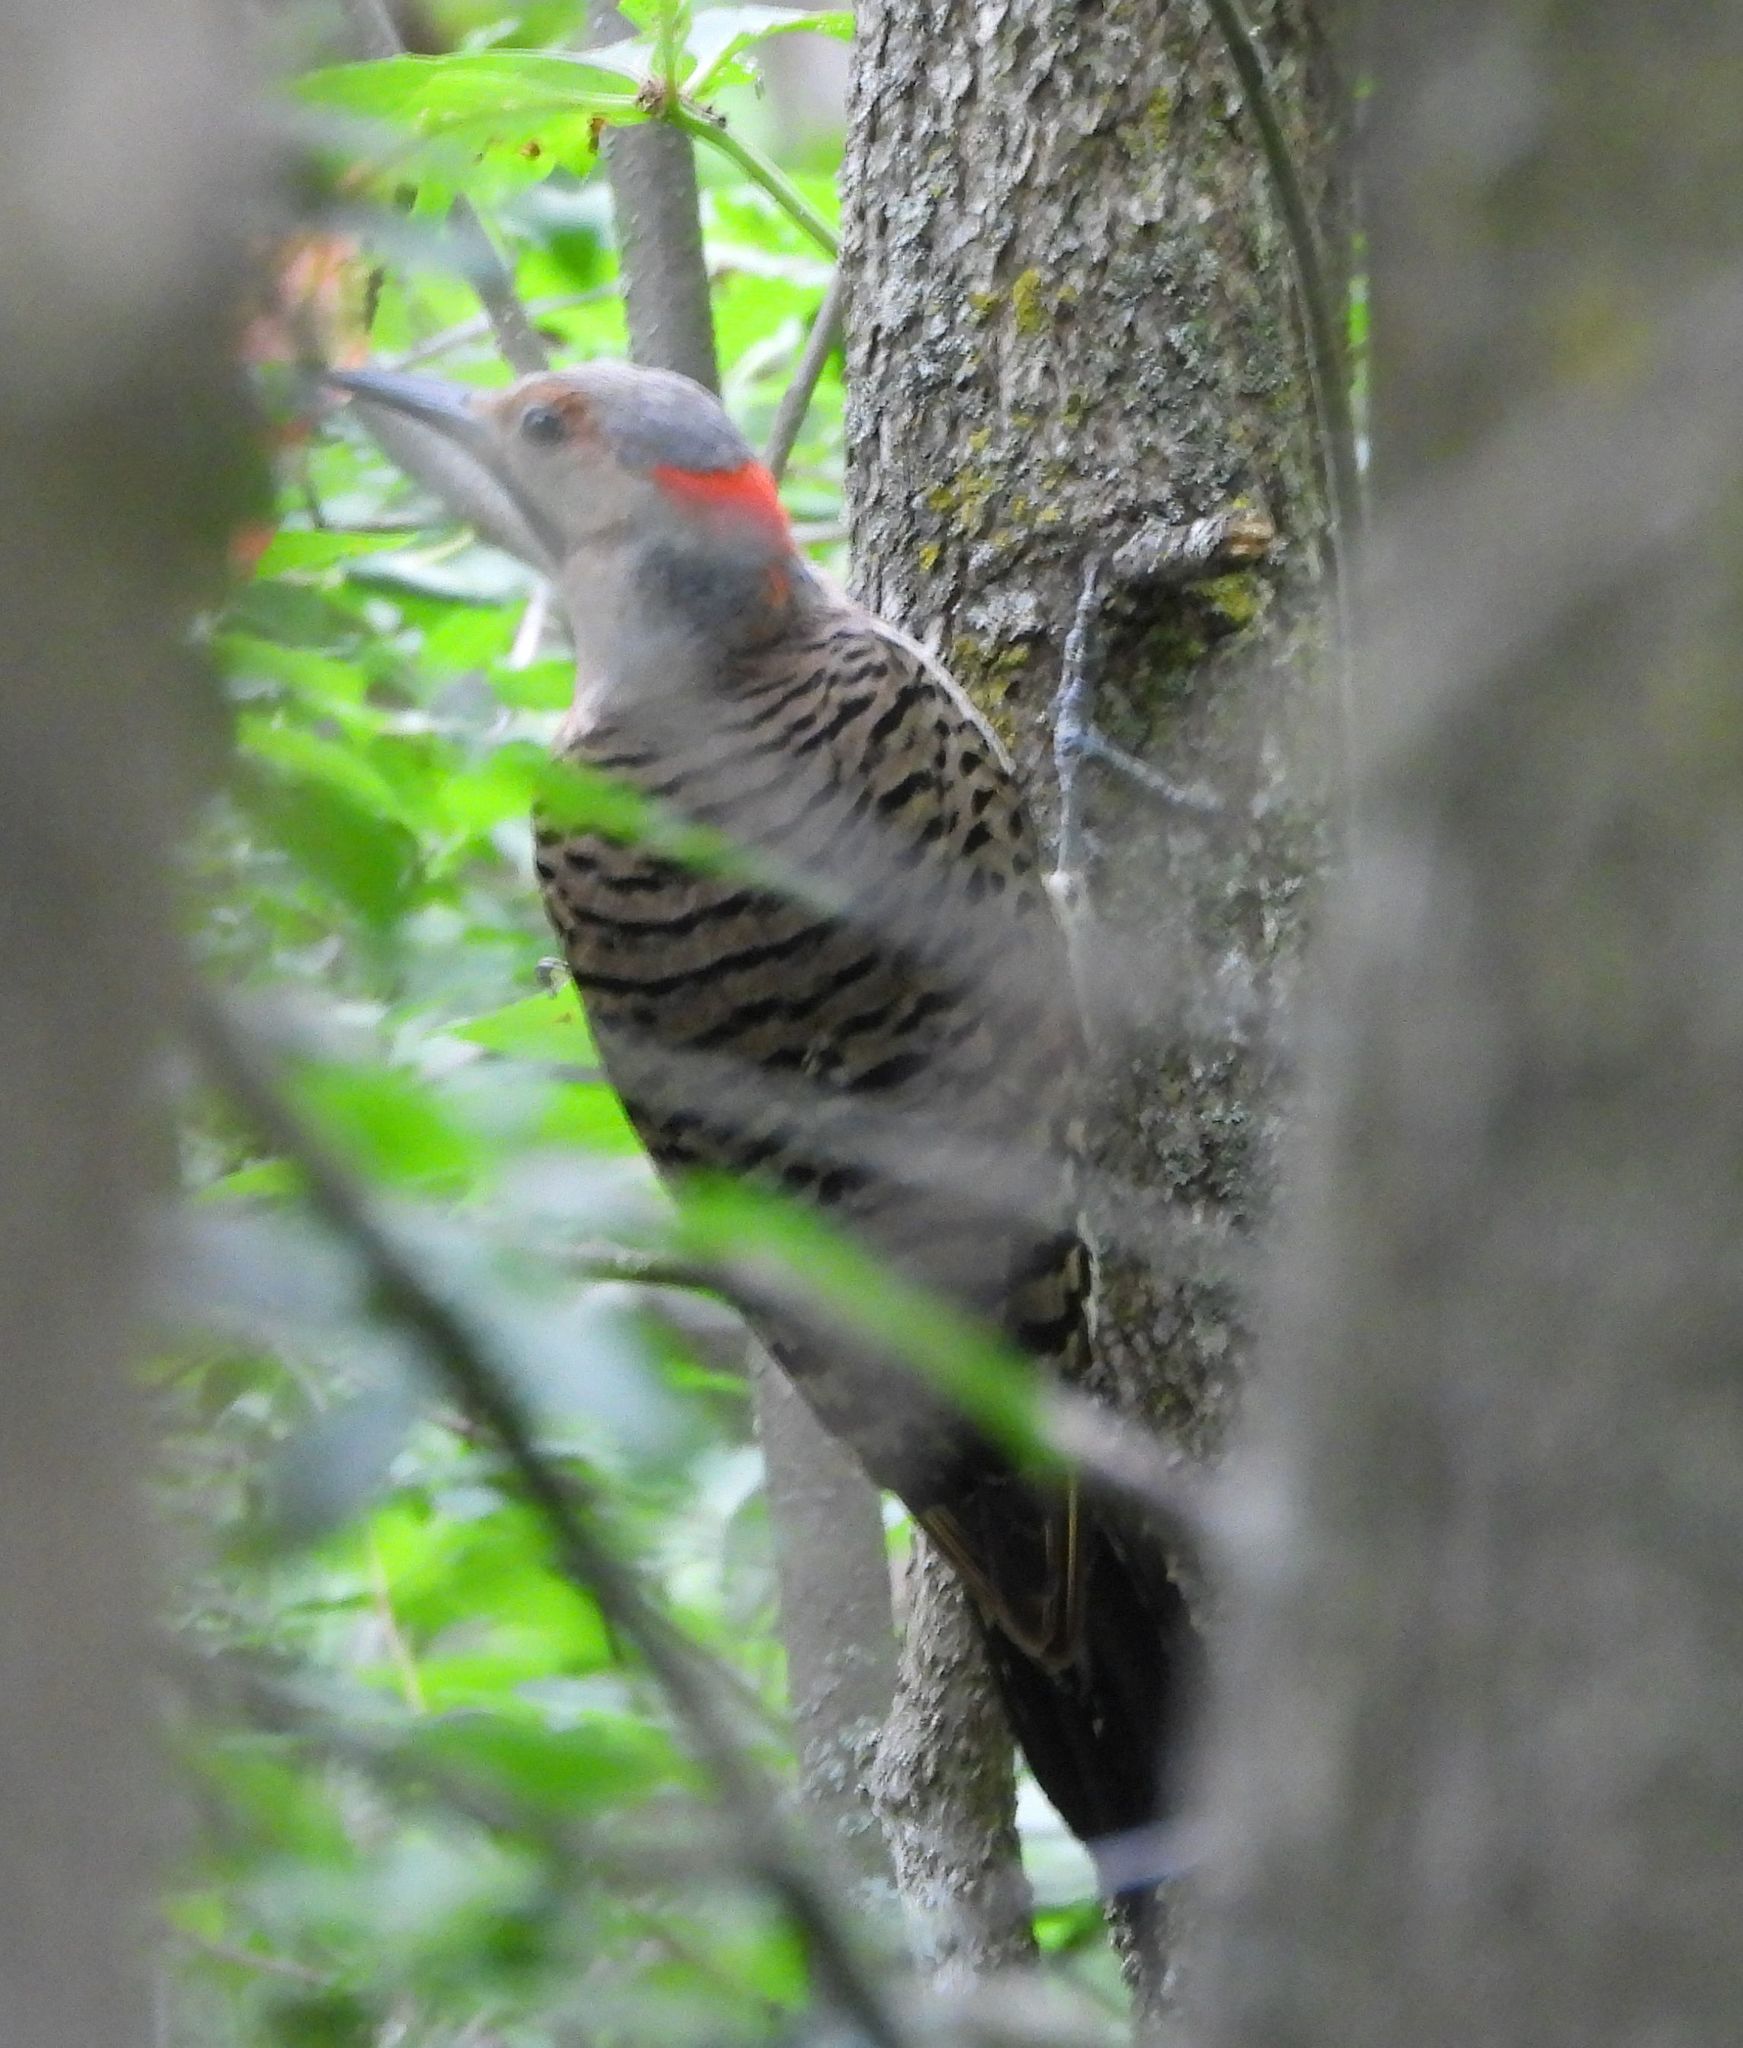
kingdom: Animalia
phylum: Chordata
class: Aves
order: Piciformes
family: Picidae
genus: Colaptes
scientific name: Colaptes auratus
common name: Northern flicker
